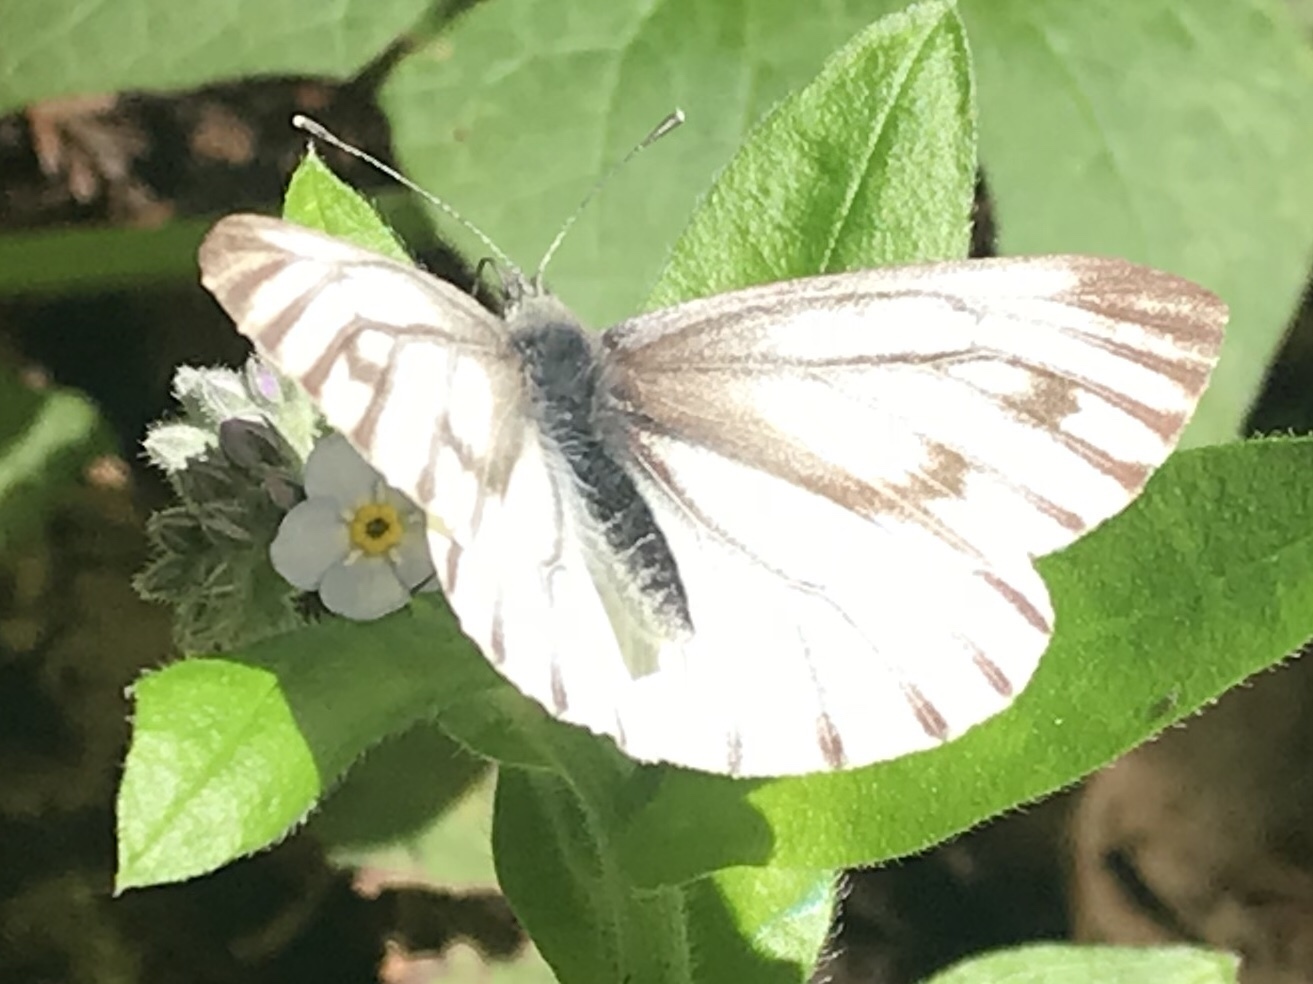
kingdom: Animalia
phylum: Arthropoda
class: Insecta
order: Lepidoptera
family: Pieridae
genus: Pieris
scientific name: Pieris marginalis
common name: Margined white
